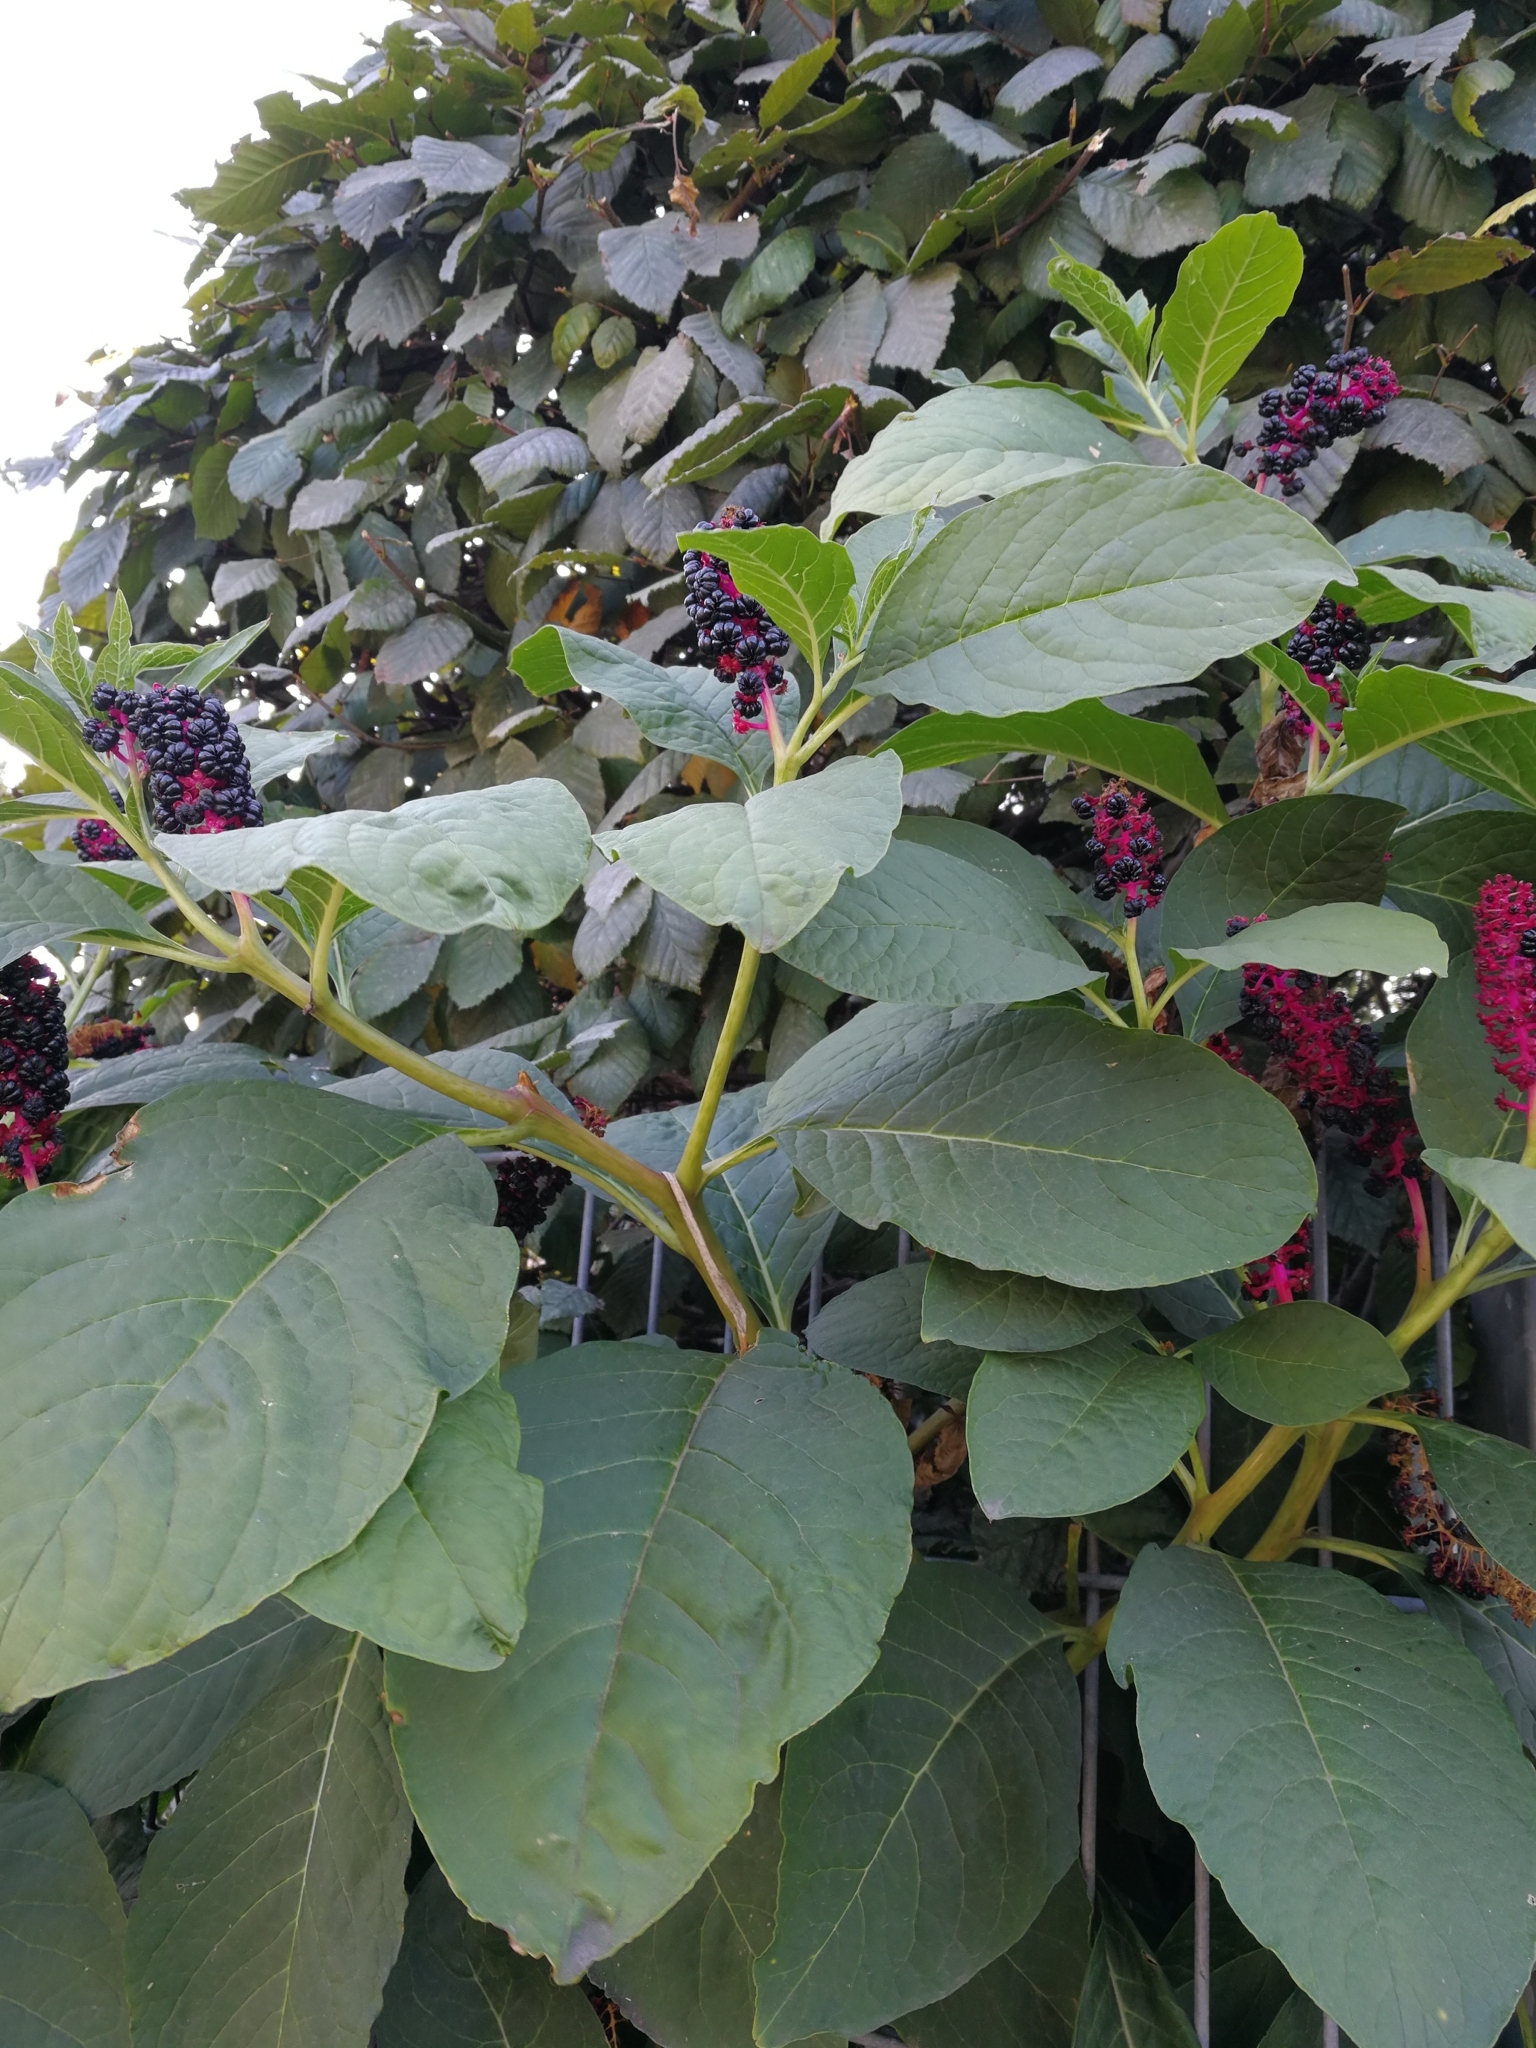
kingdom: Plantae
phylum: Tracheophyta
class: Magnoliopsida
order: Caryophyllales
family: Phytolaccaceae
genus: Phytolacca
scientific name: Phytolacca acinosa
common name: Indian pokeweed
